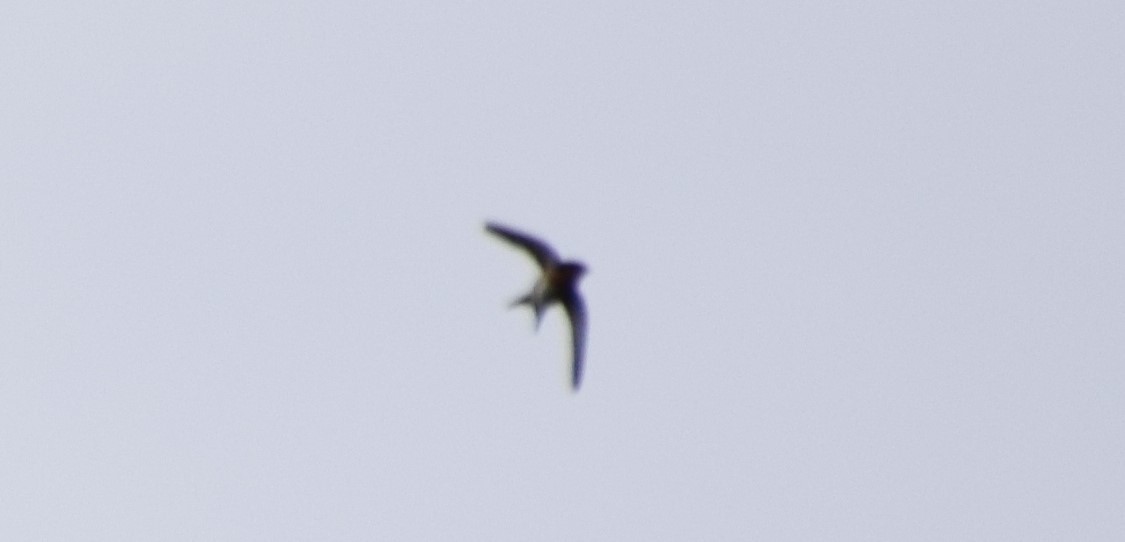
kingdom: Animalia
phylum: Chordata
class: Aves
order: Passeriformes
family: Hirundinidae
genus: Hirundo
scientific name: Hirundo neoxena
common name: Welcome swallow
